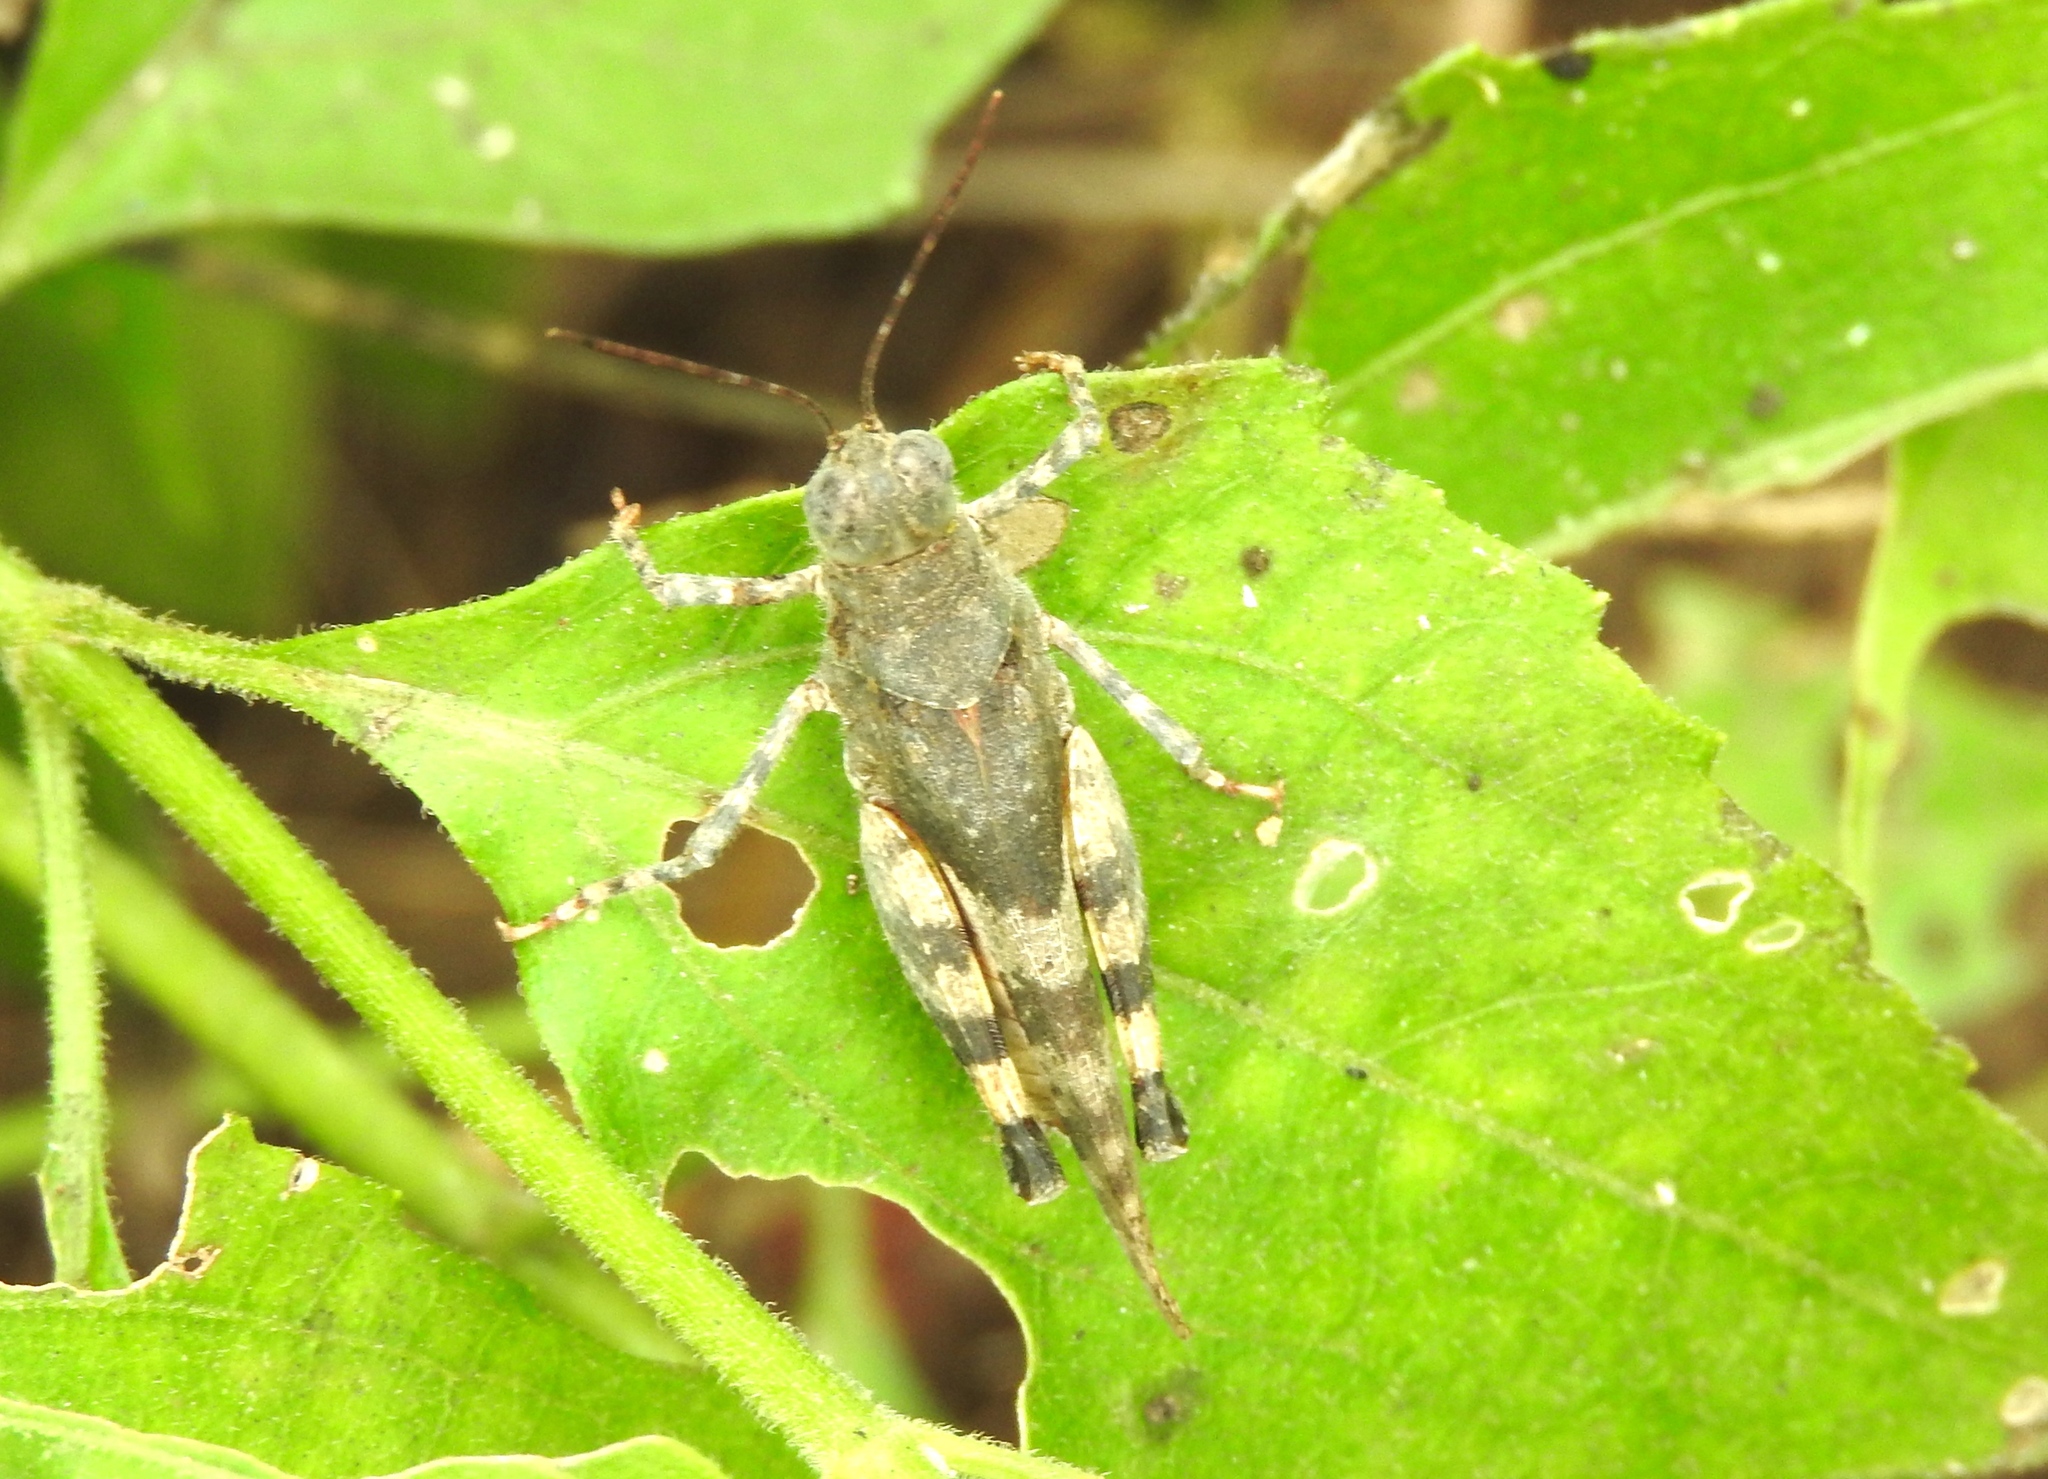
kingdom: Animalia
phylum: Arthropoda
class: Insecta
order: Orthoptera
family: Acrididae
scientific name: Acrididae
